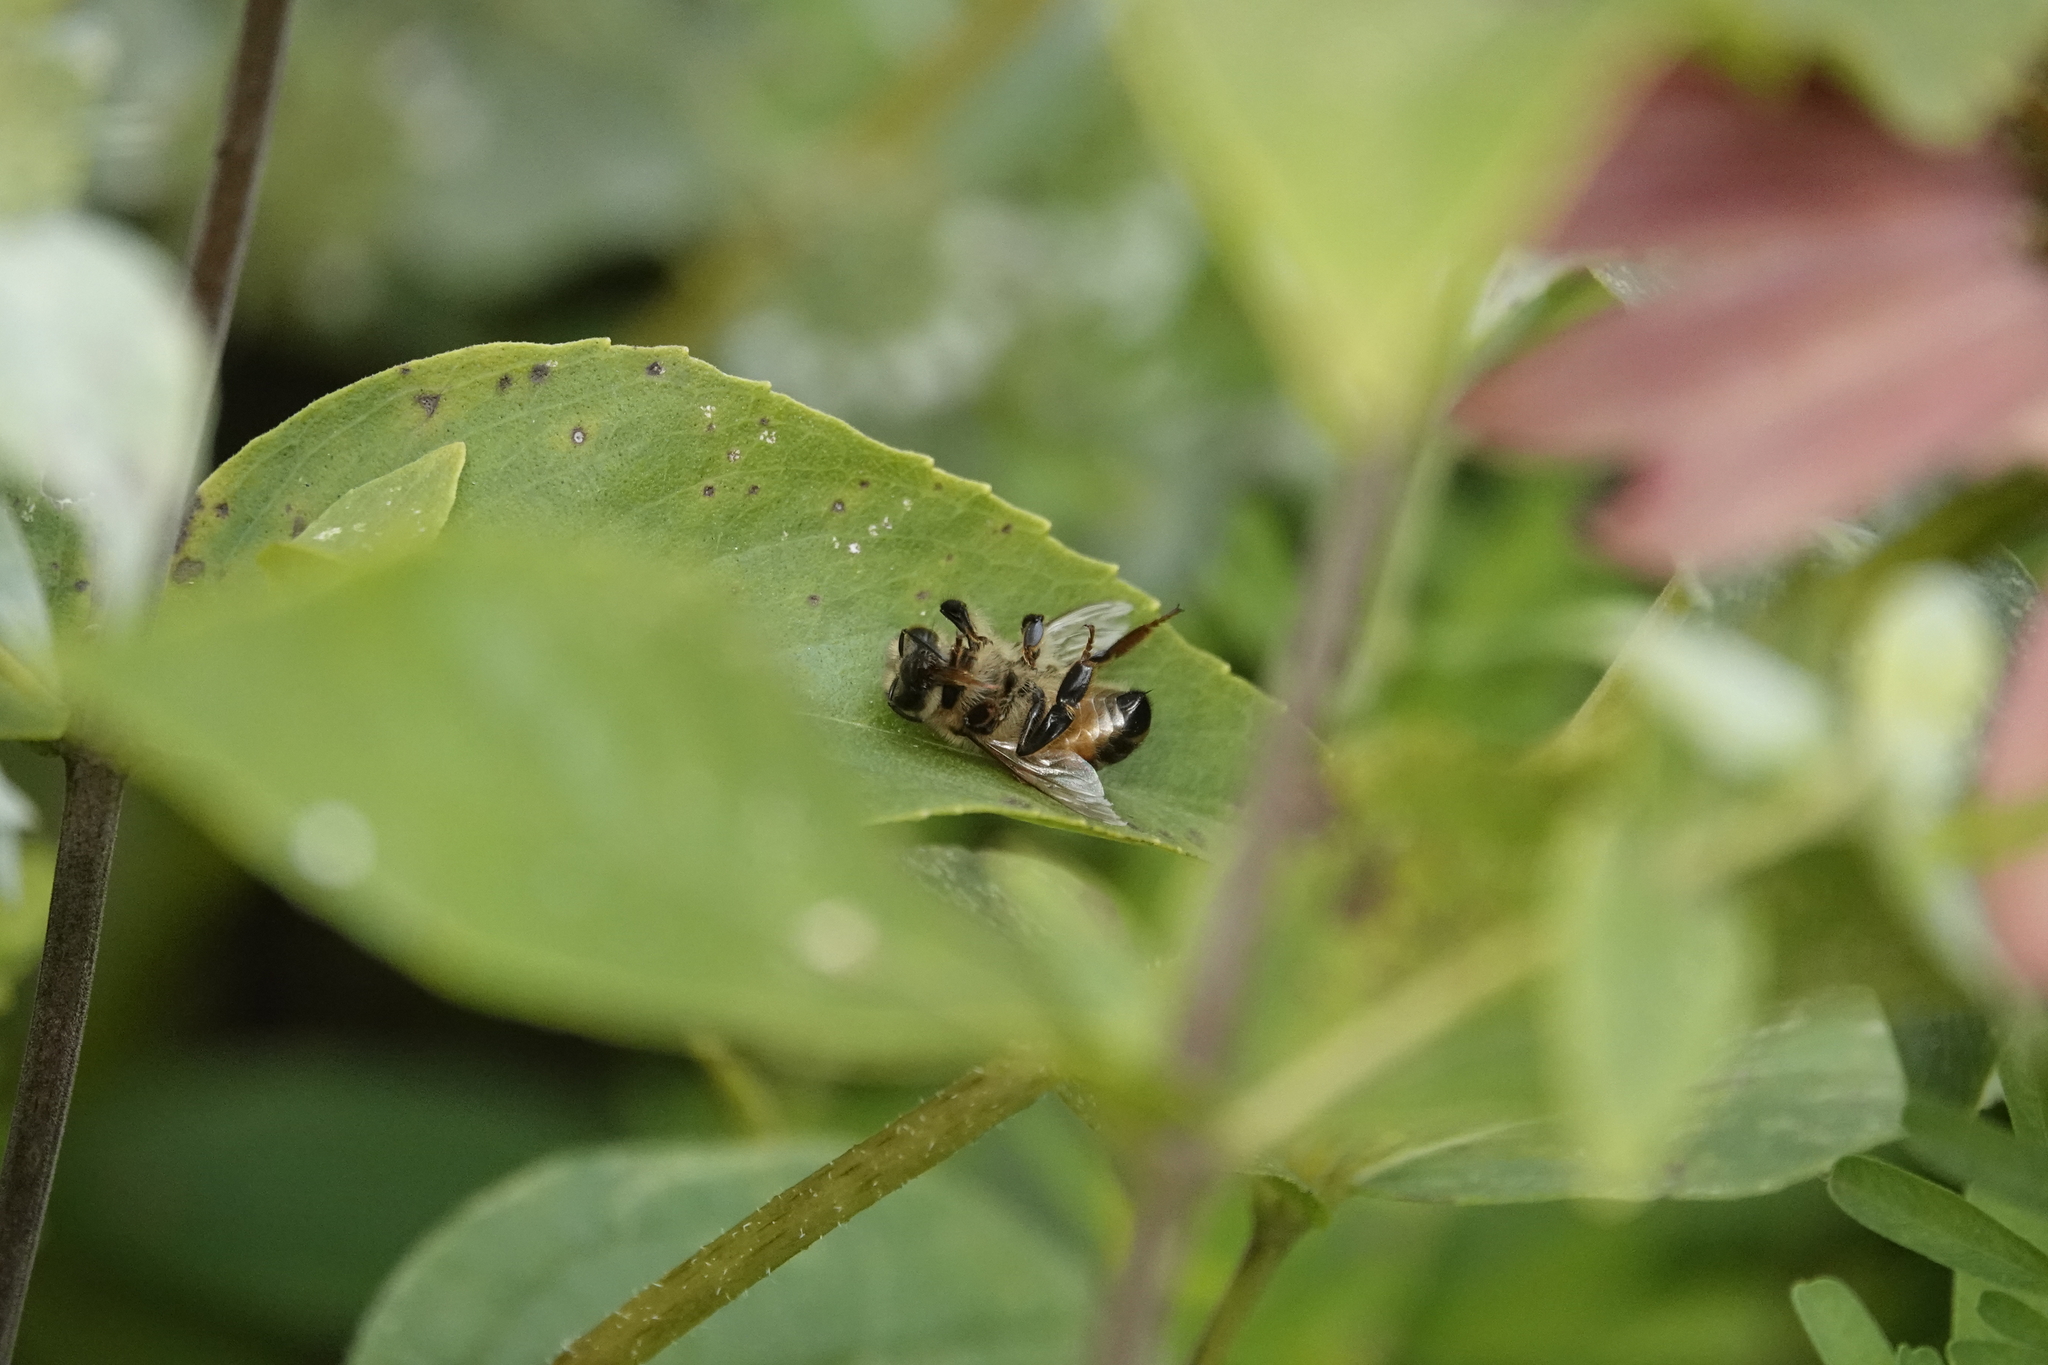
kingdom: Animalia
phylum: Arthropoda
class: Insecta
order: Hymenoptera
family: Apidae
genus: Apis
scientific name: Apis mellifera
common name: Honey bee
